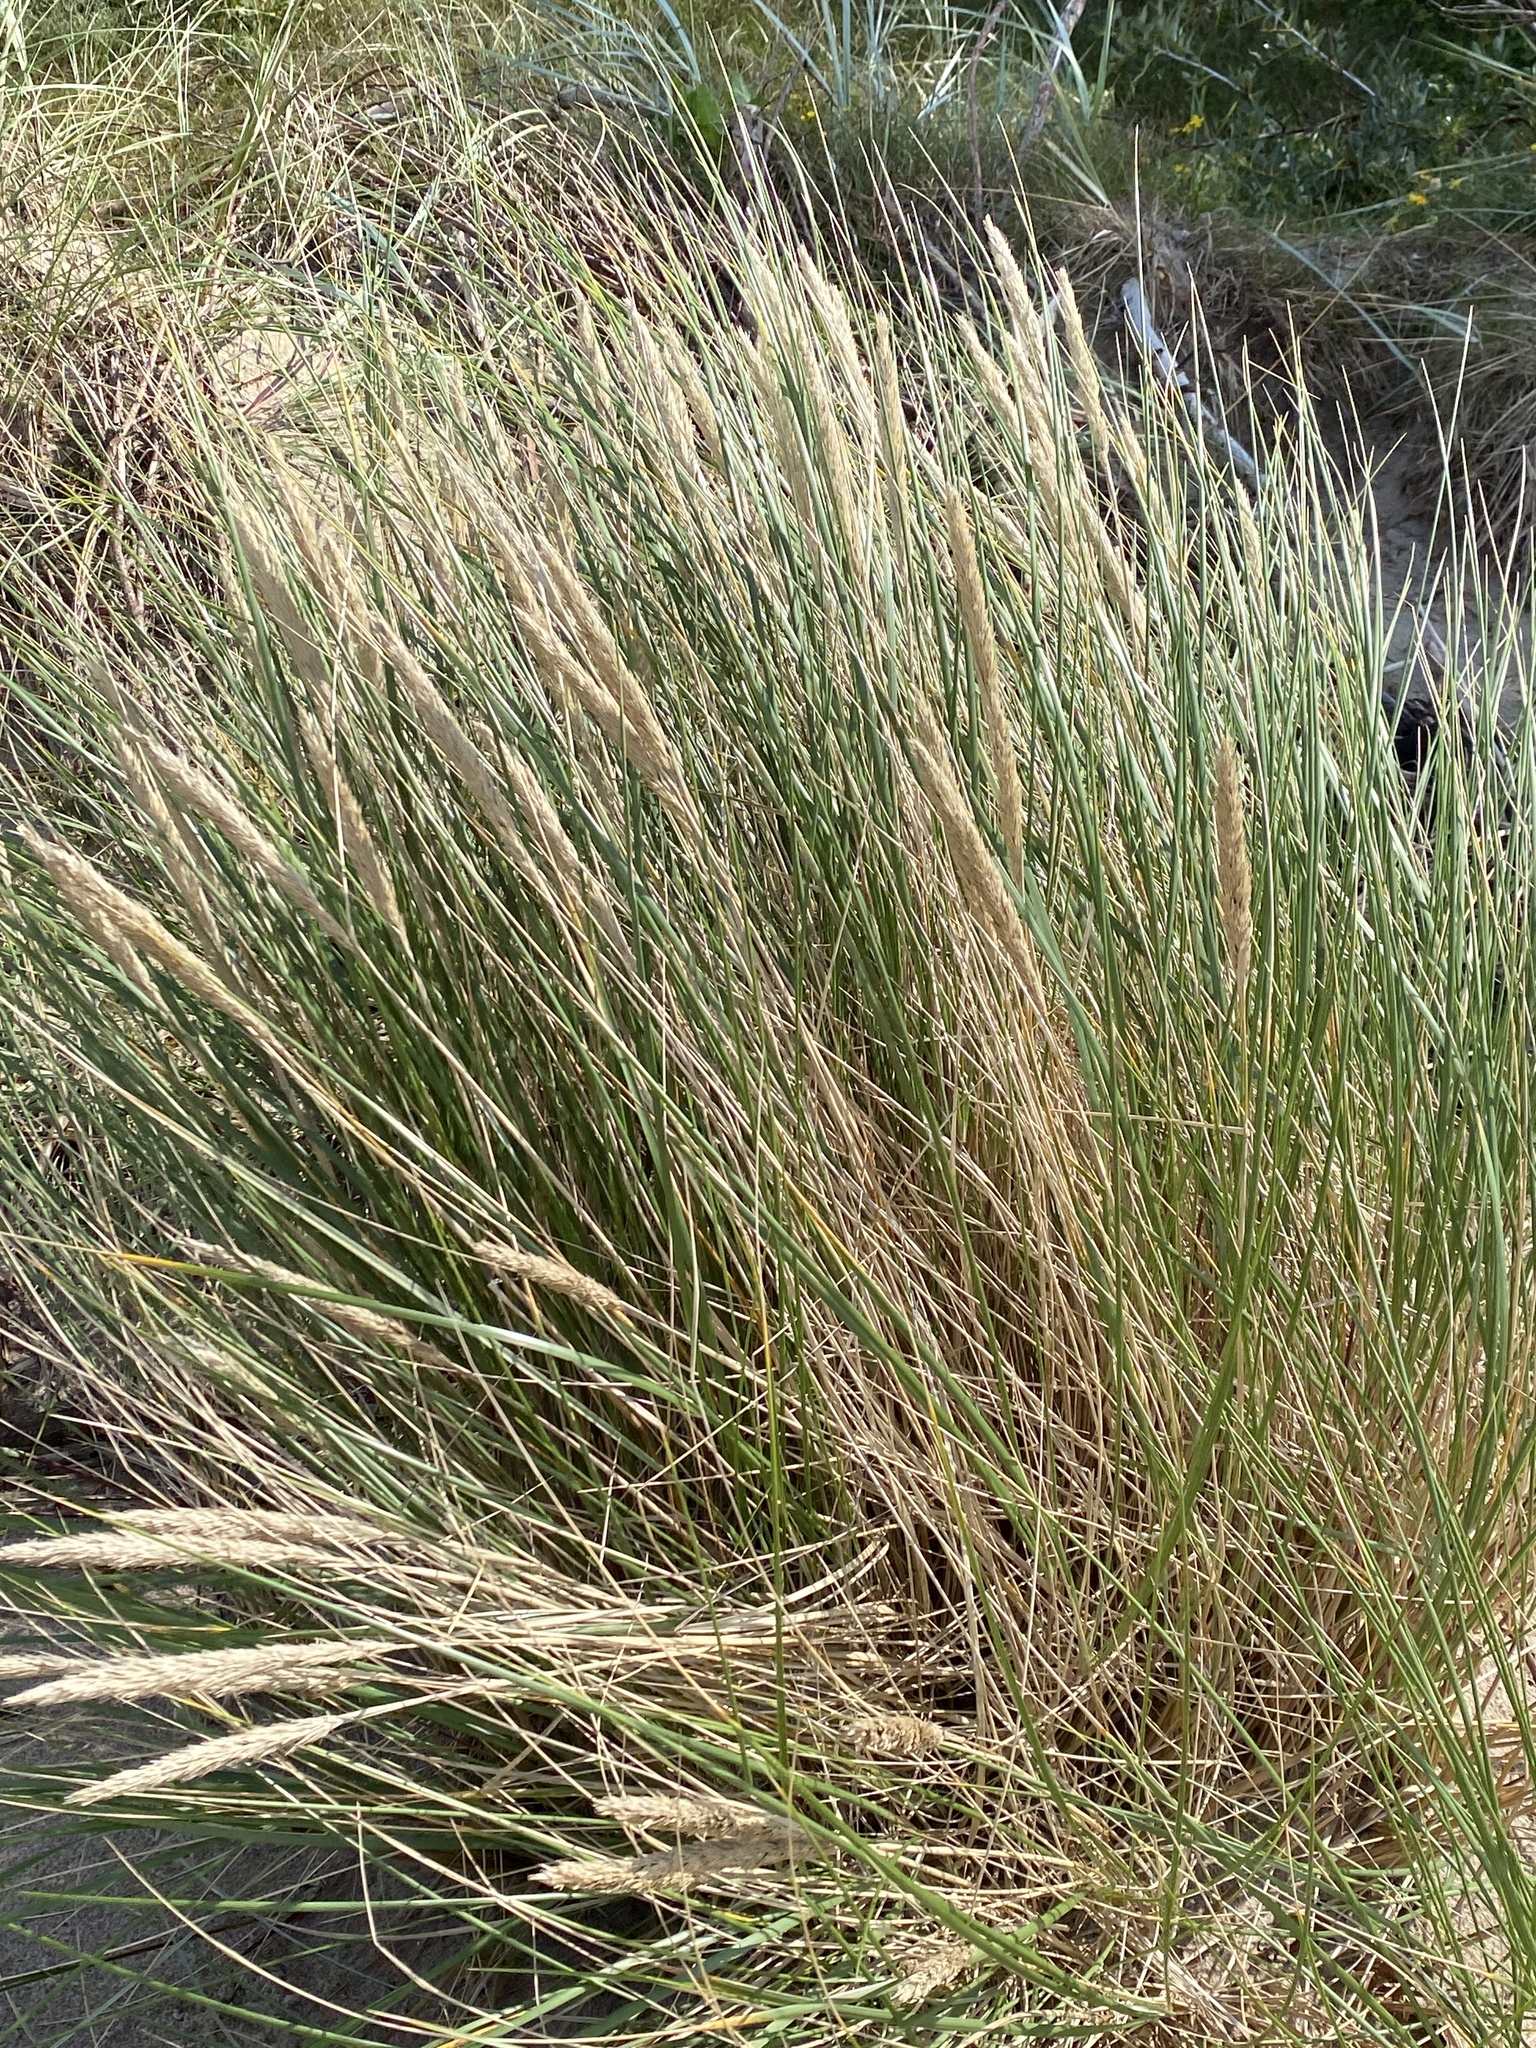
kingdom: Plantae
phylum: Tracheophyta
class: Liliopsida
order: Poales
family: Poaceae
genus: Calamagrostis
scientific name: Calamagrostis arenaria
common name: European beachgrass
